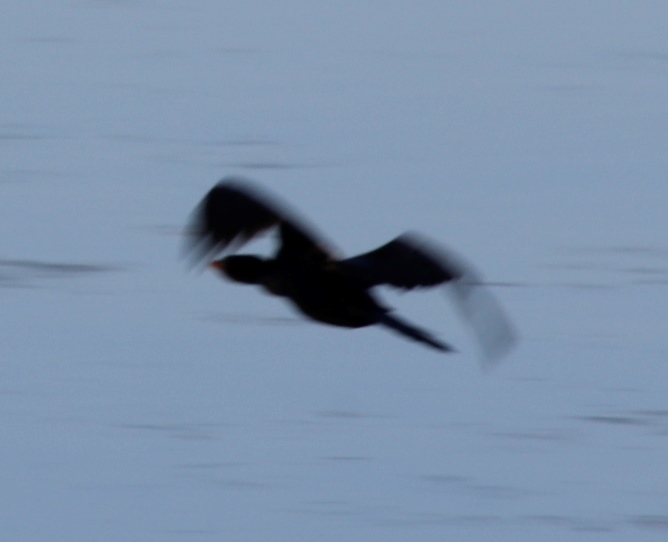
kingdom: Animalia
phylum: Chordata
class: Aves
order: Suliformes
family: Phalacrocoracidae
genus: Microcarbo
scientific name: Microcarbo africanus
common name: Long-tailed cormorant
